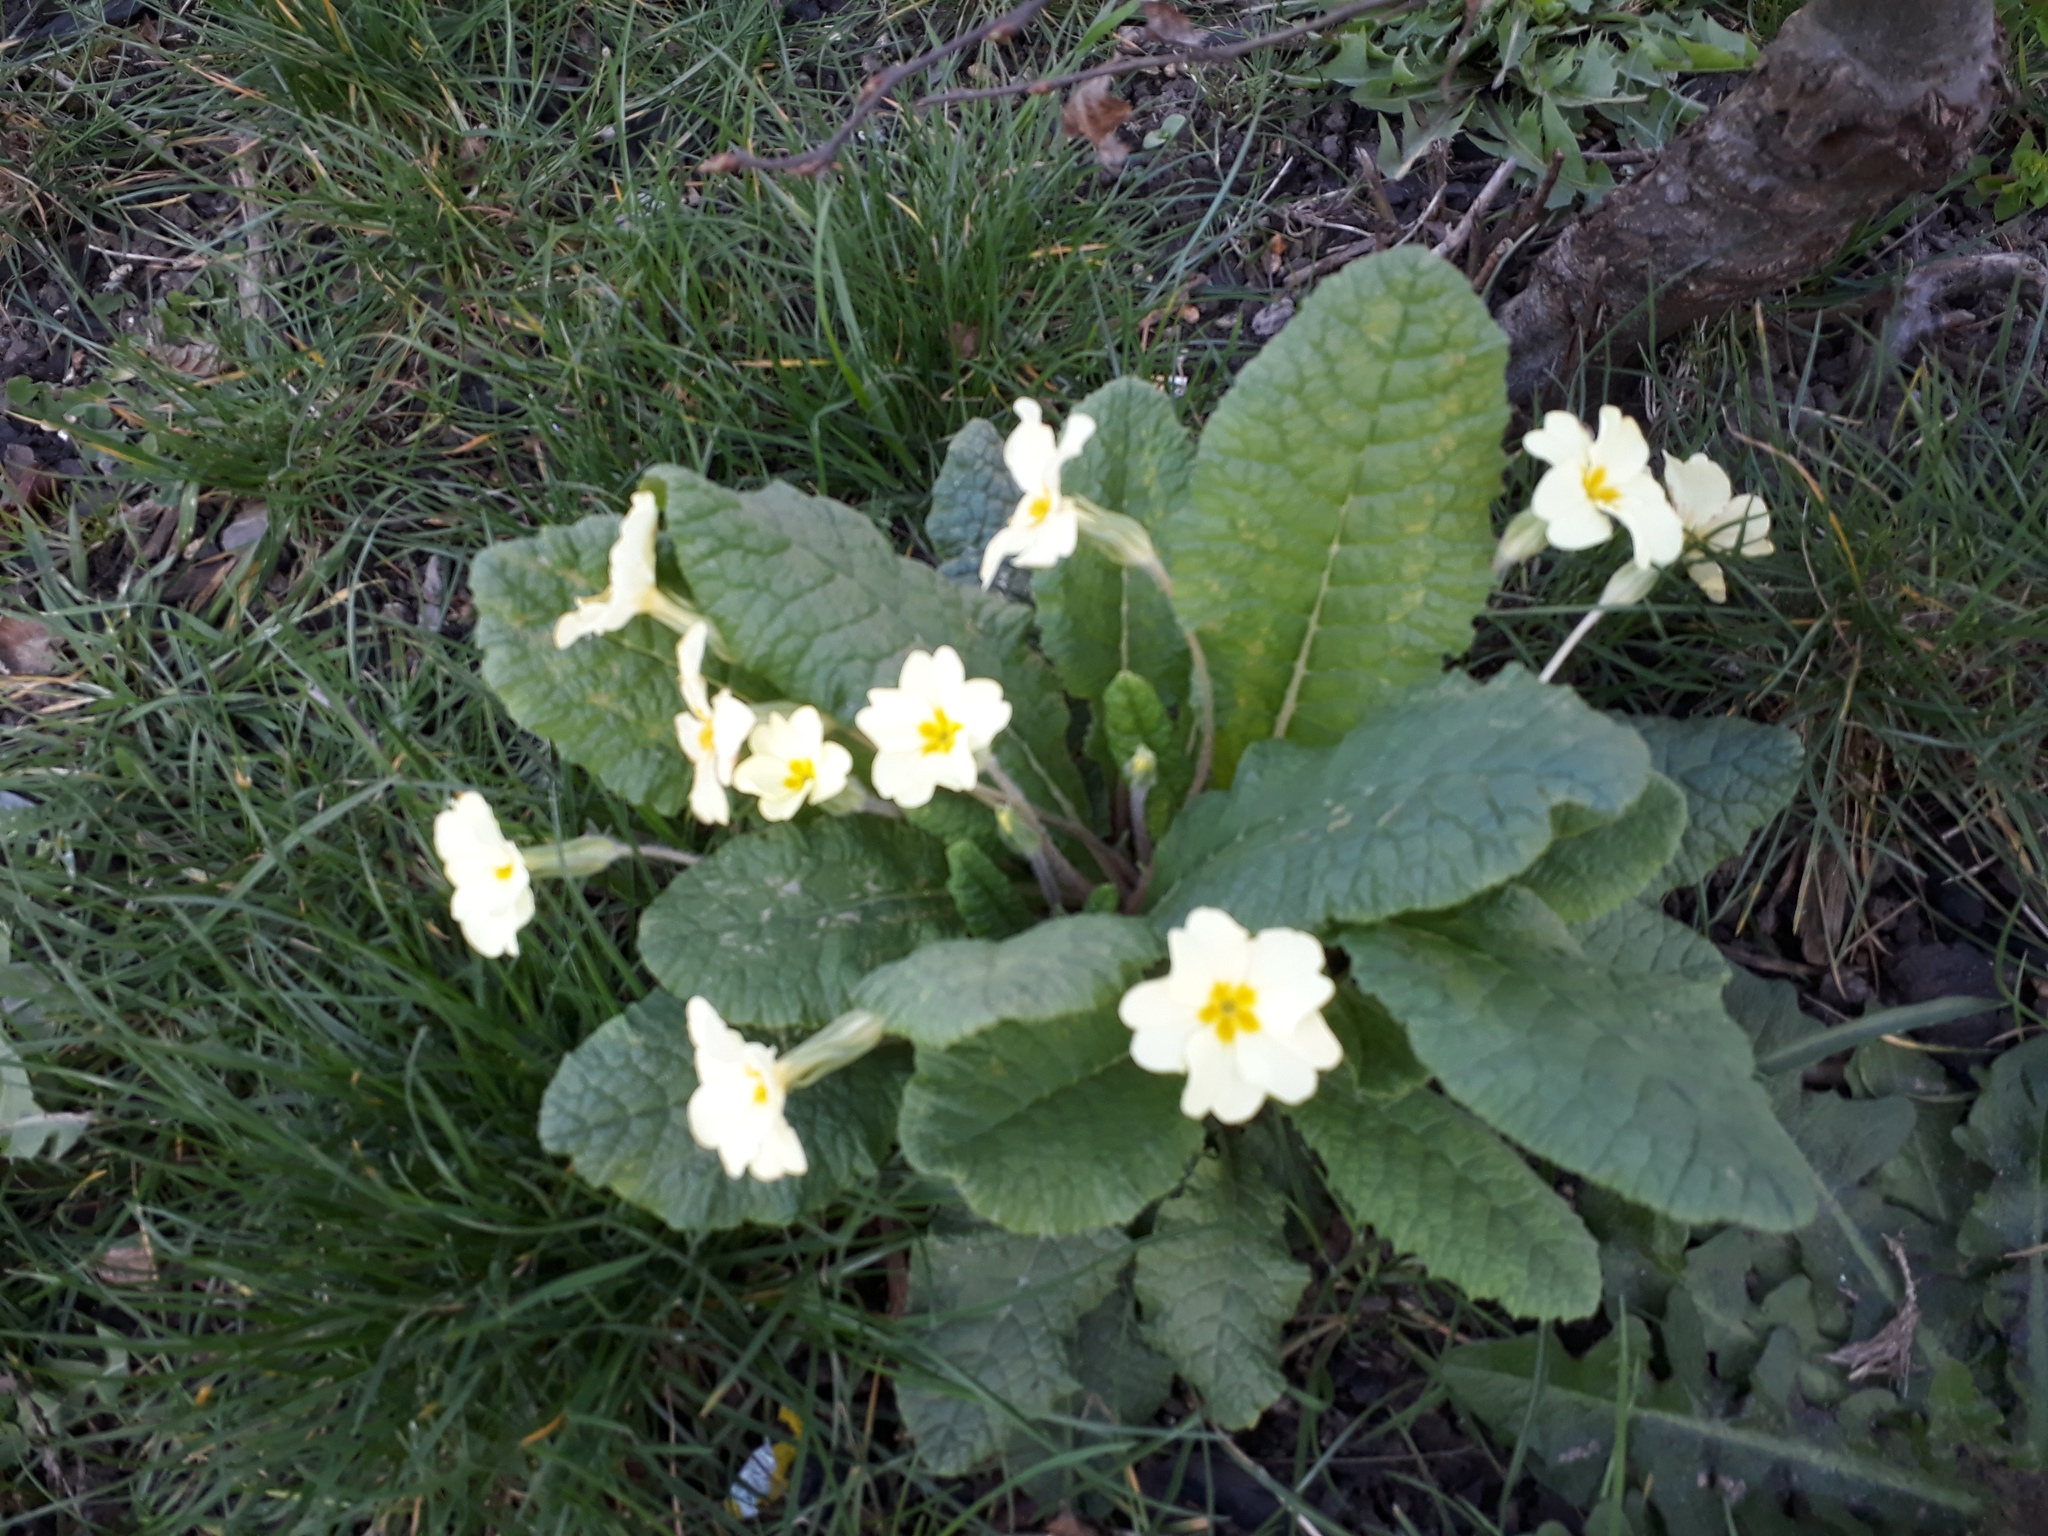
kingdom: Plantae
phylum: Tracheophyta
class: Magnoliopsida
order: Ericales
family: Primulaceae
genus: Primula
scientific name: Primula vulgaris
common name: Primrose
